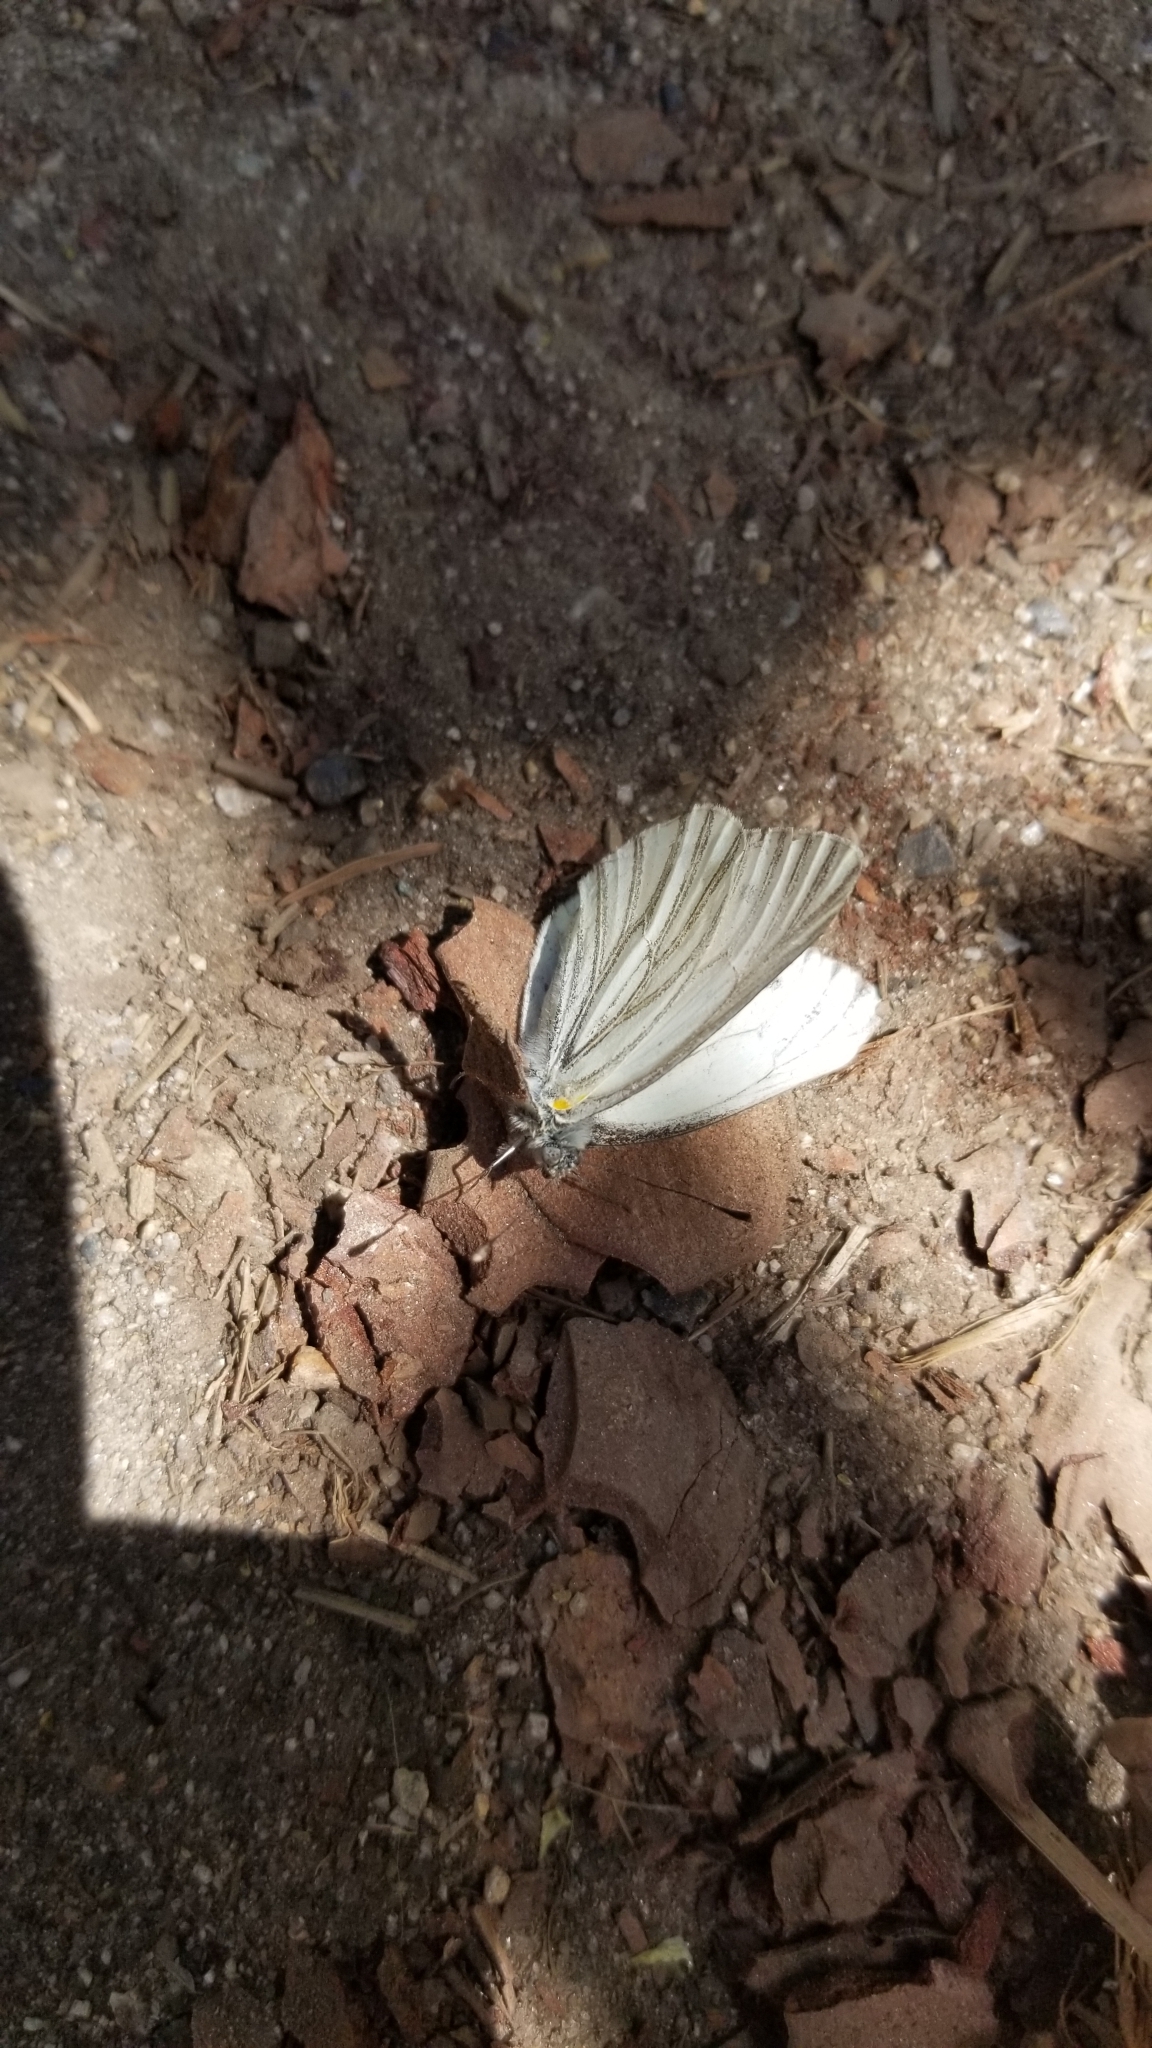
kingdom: Animalia
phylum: Arthropoda
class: Insecta
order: Lepidoptera
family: Pieridae
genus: Pieris
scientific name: Pieris marginalis
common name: Margined white
